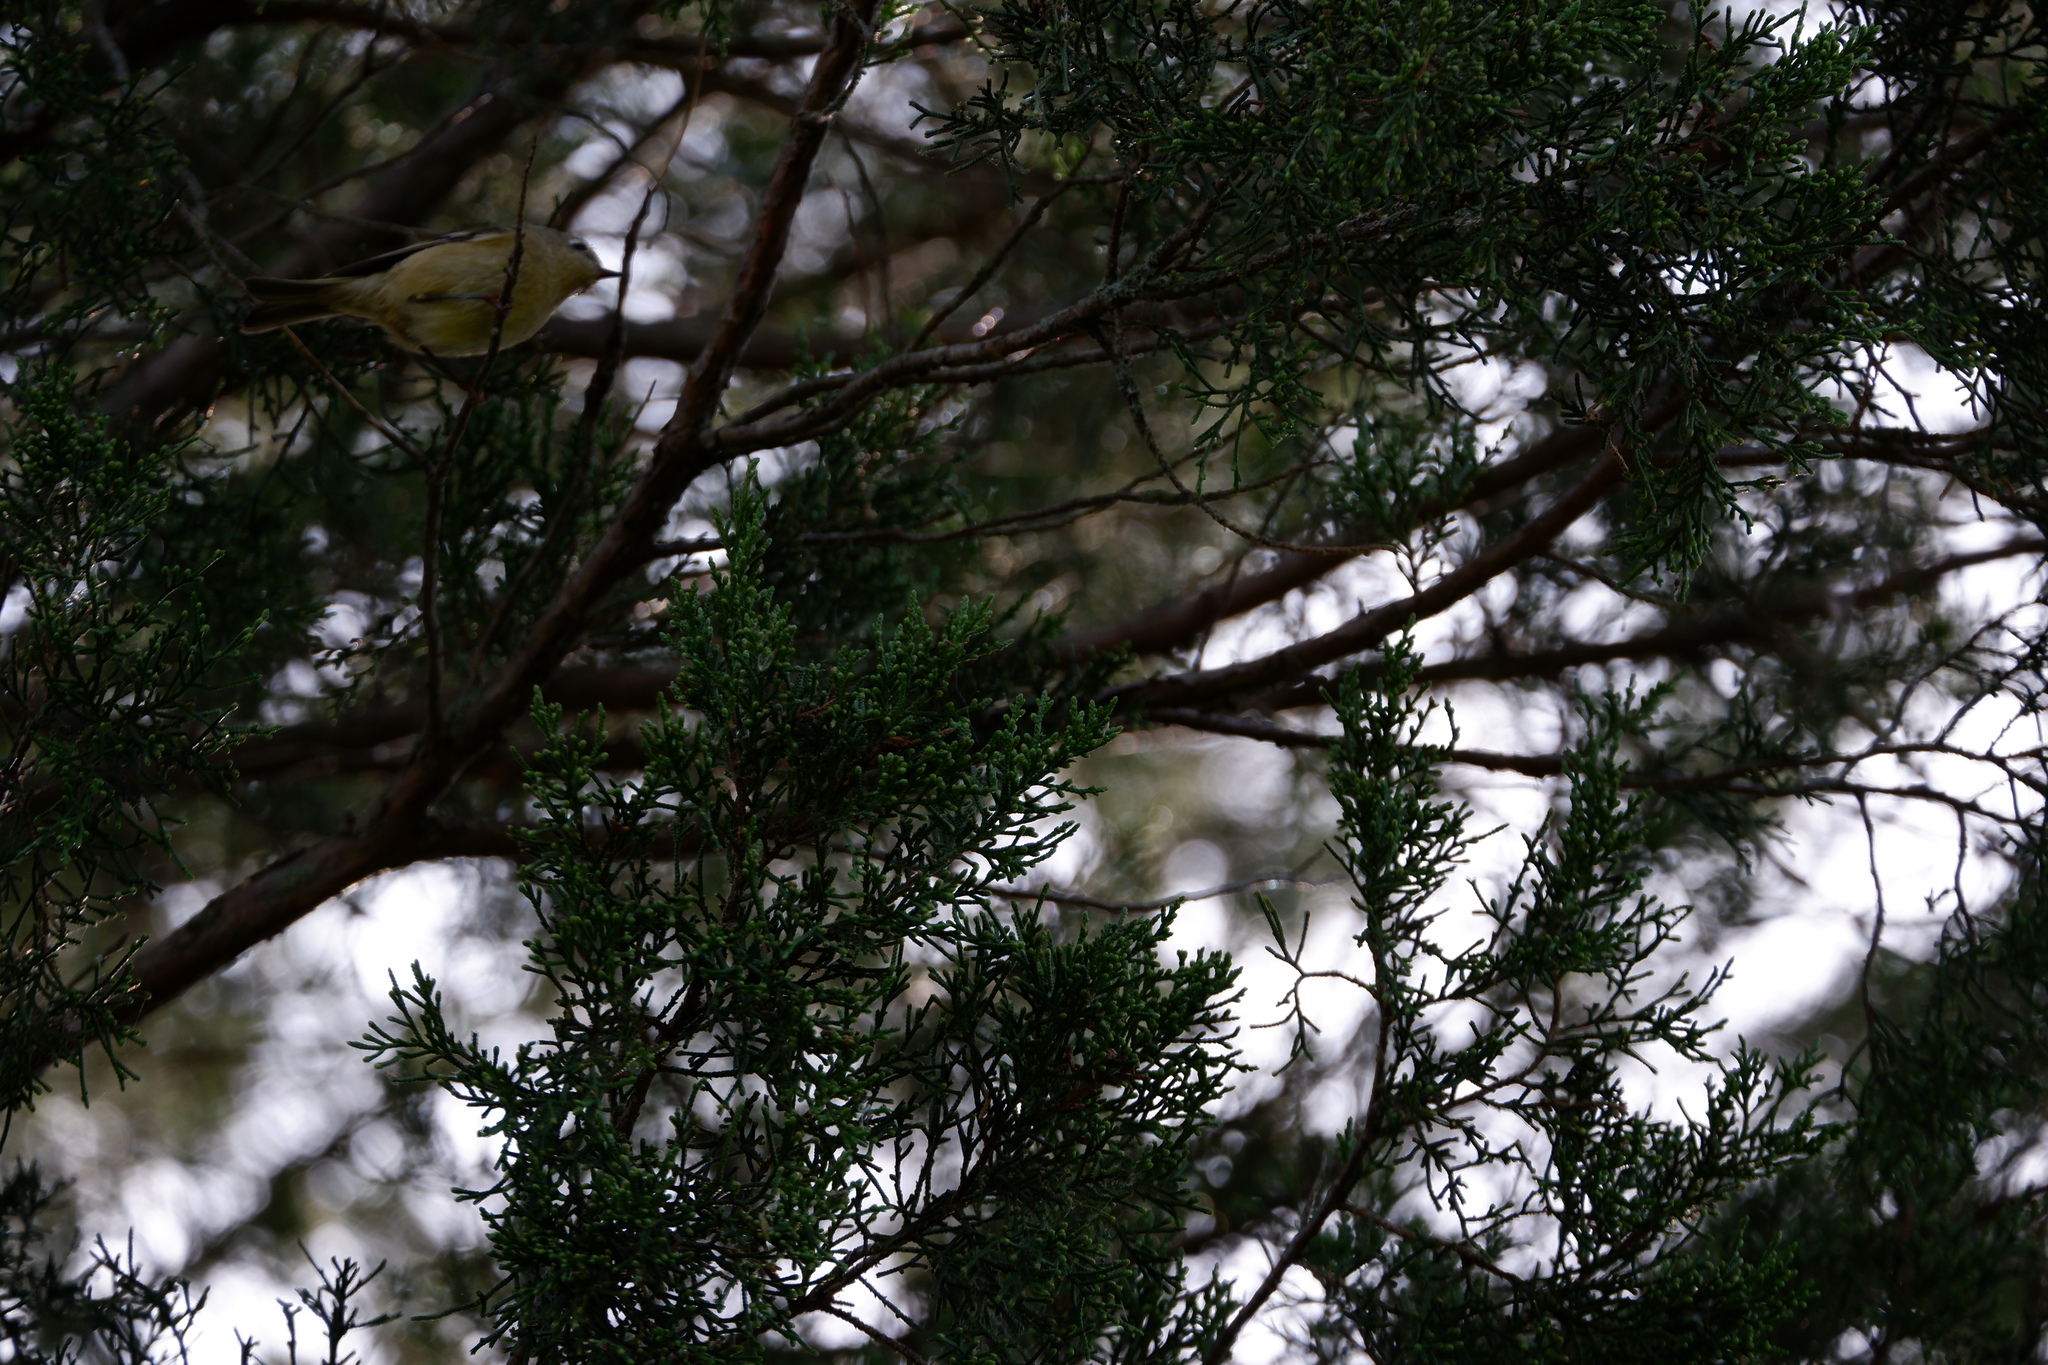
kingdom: Animalia
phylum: Chordata
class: Aves
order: Passeriformes
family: Regulidae
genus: Regulus
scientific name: Regulus calendula
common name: Ruby-crowned kinglet
